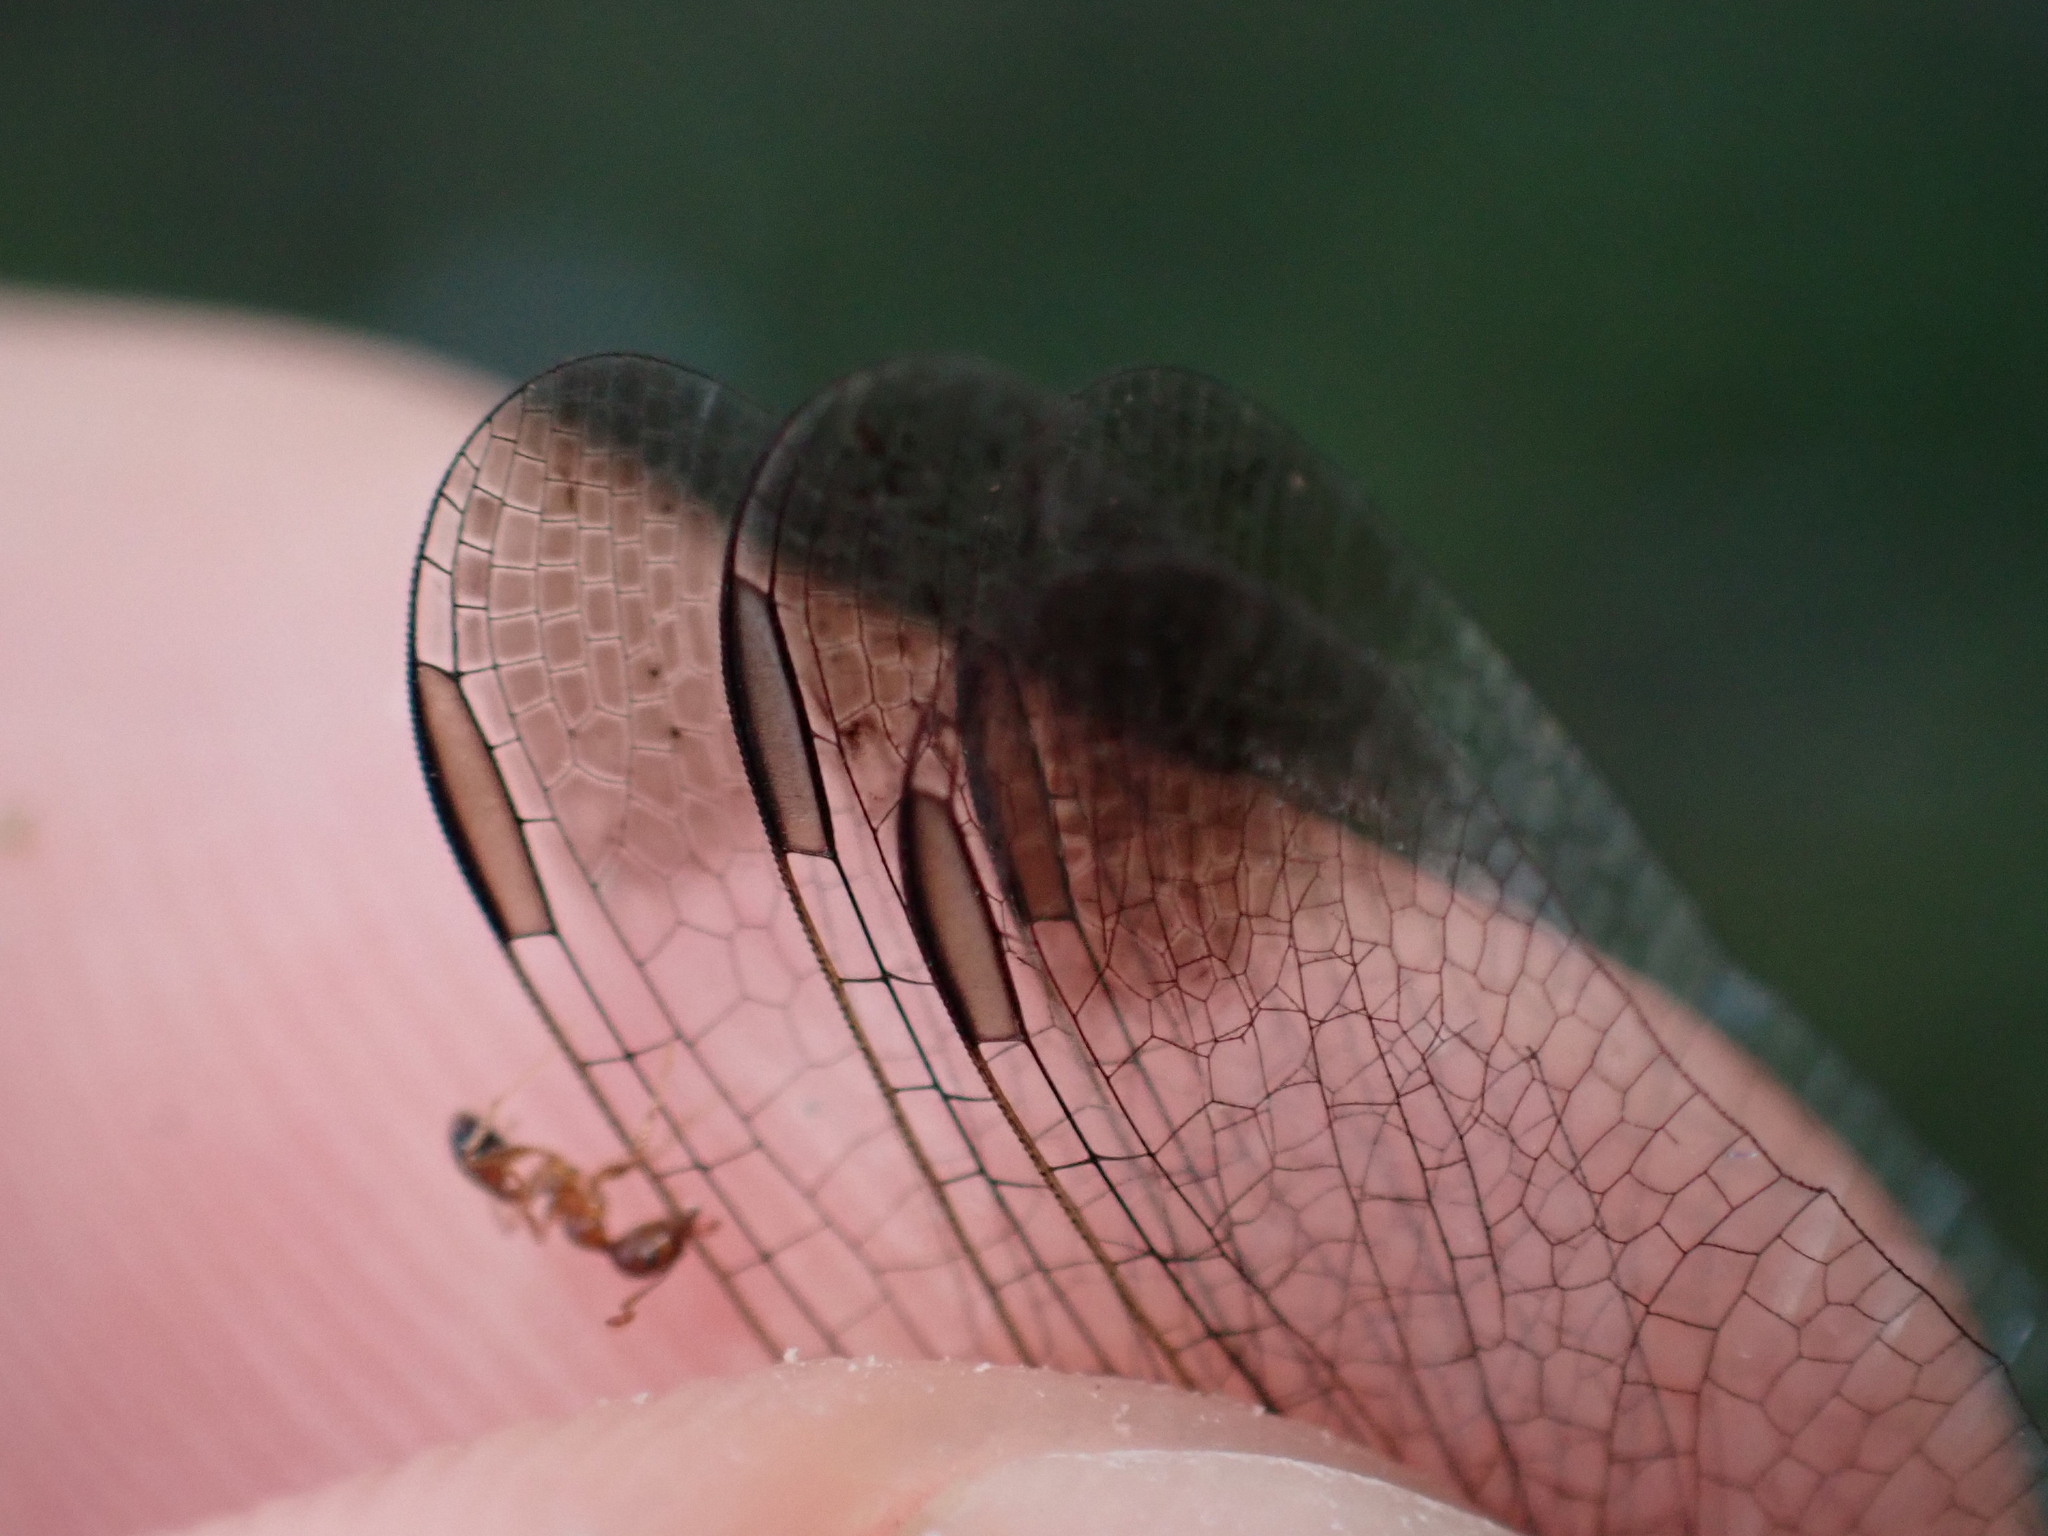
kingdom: Animalia
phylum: Arthropoda
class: Insecta
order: Odonata
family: Libellulidae
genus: Diplacodes
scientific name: Diplacodes nebulosa
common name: Black-tipped percher
